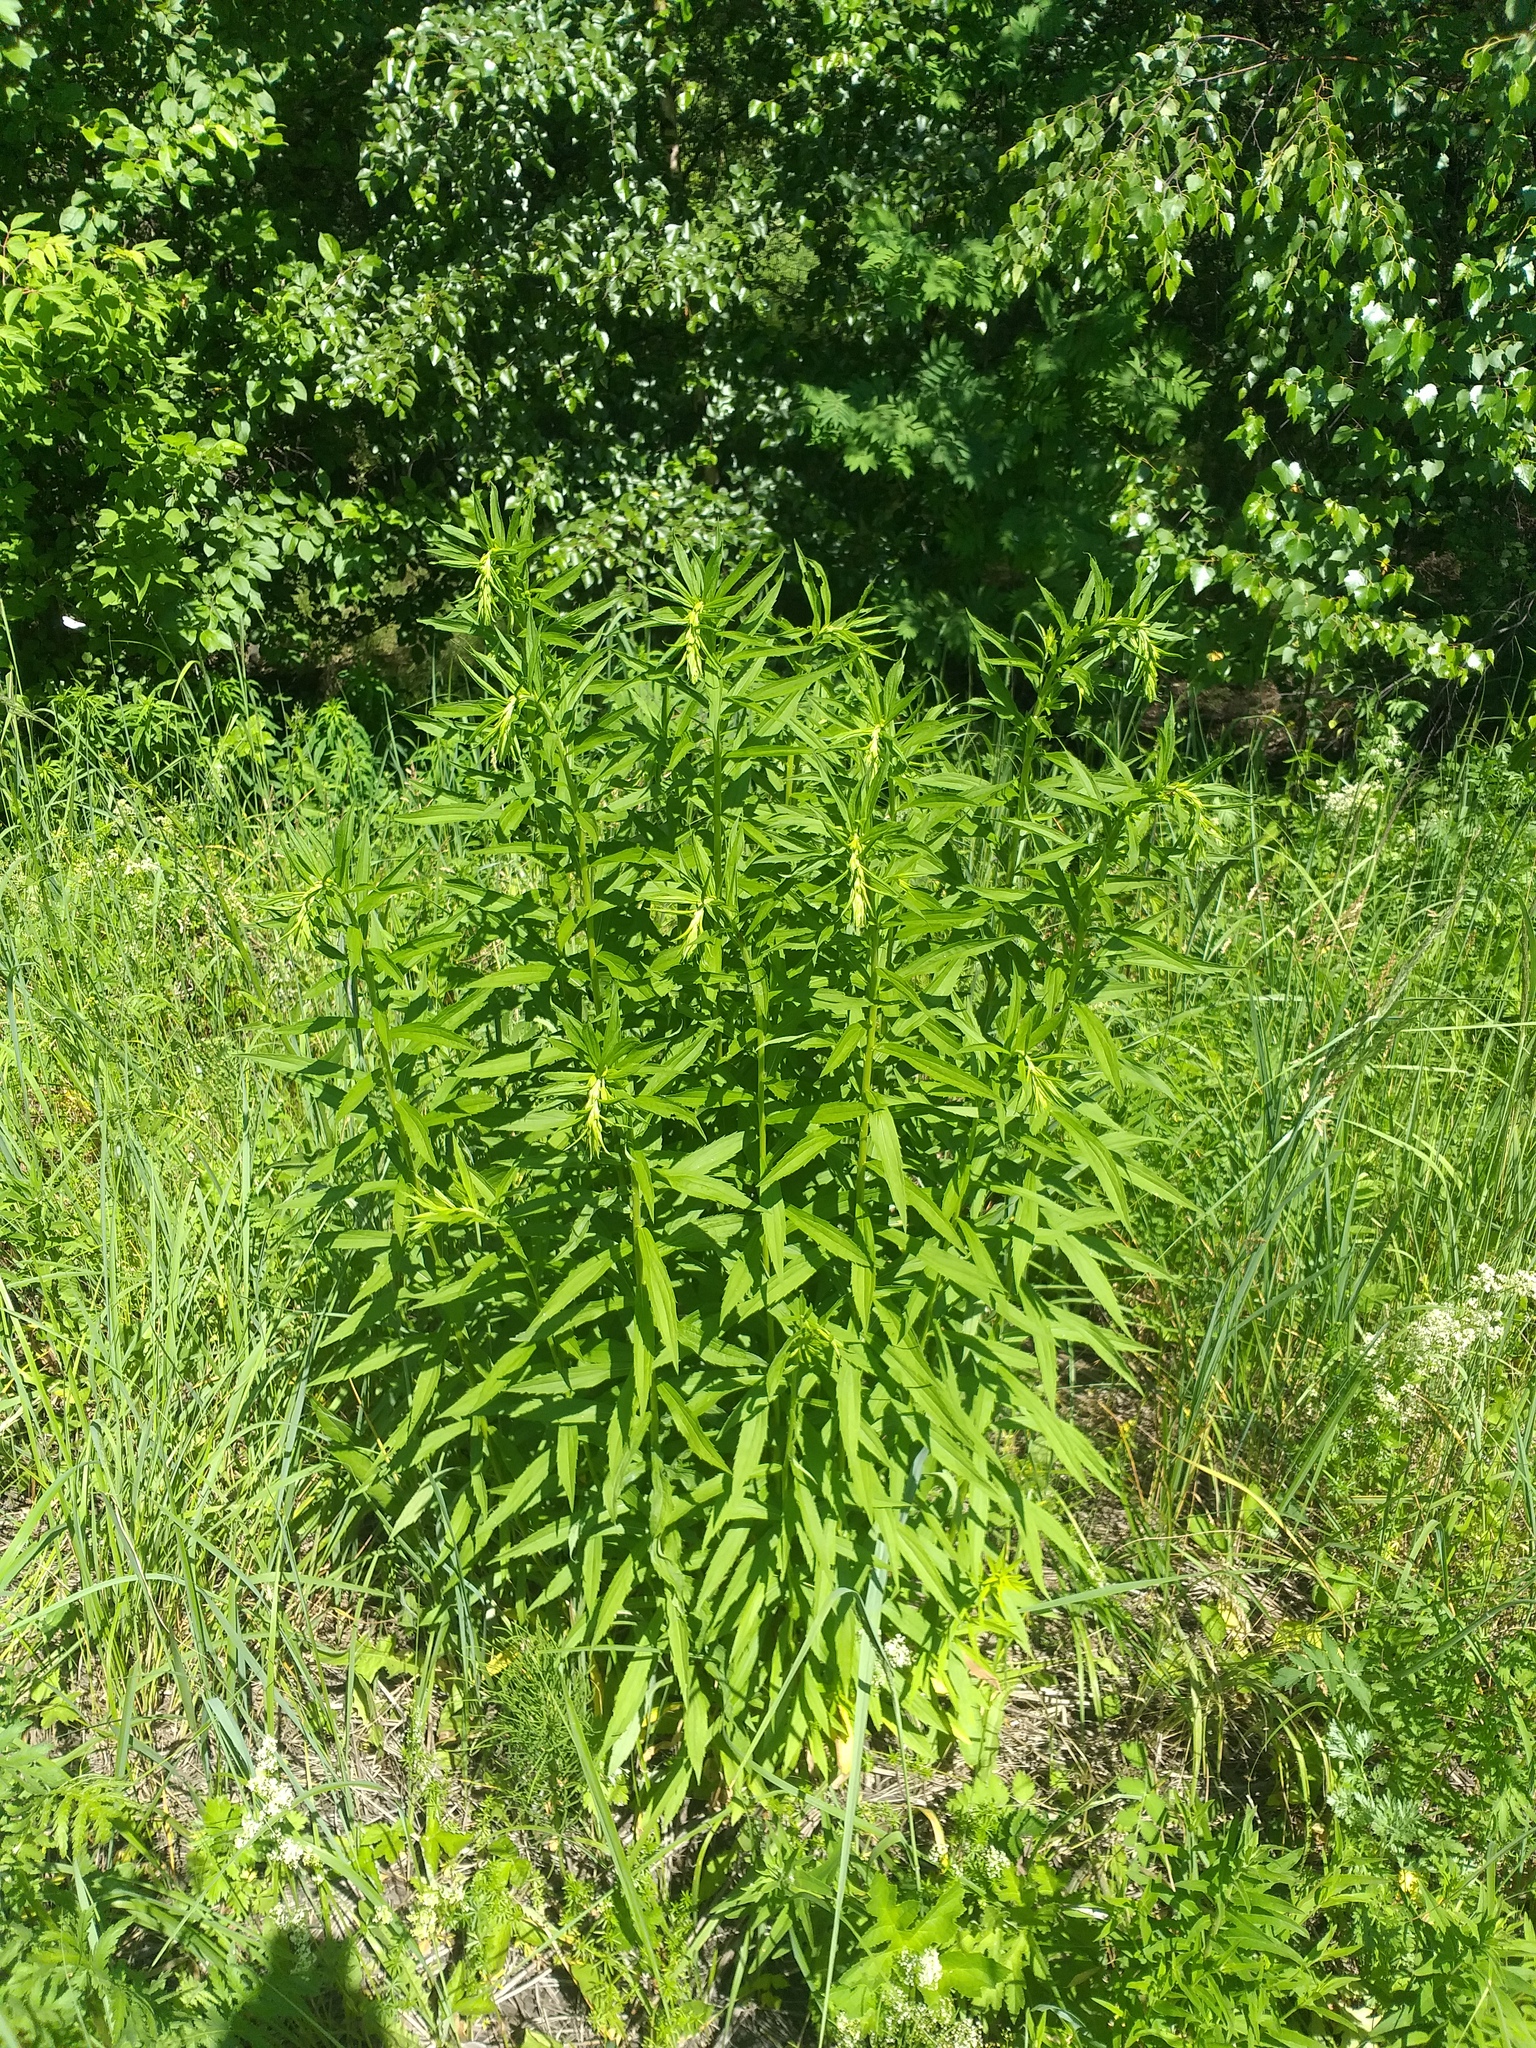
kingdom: Plantae
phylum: Tracheophyta
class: Magnoliopsida
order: Asterales
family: Asteraceae
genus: Solidago
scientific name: Solidago canadensis
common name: Canada goldenrod
